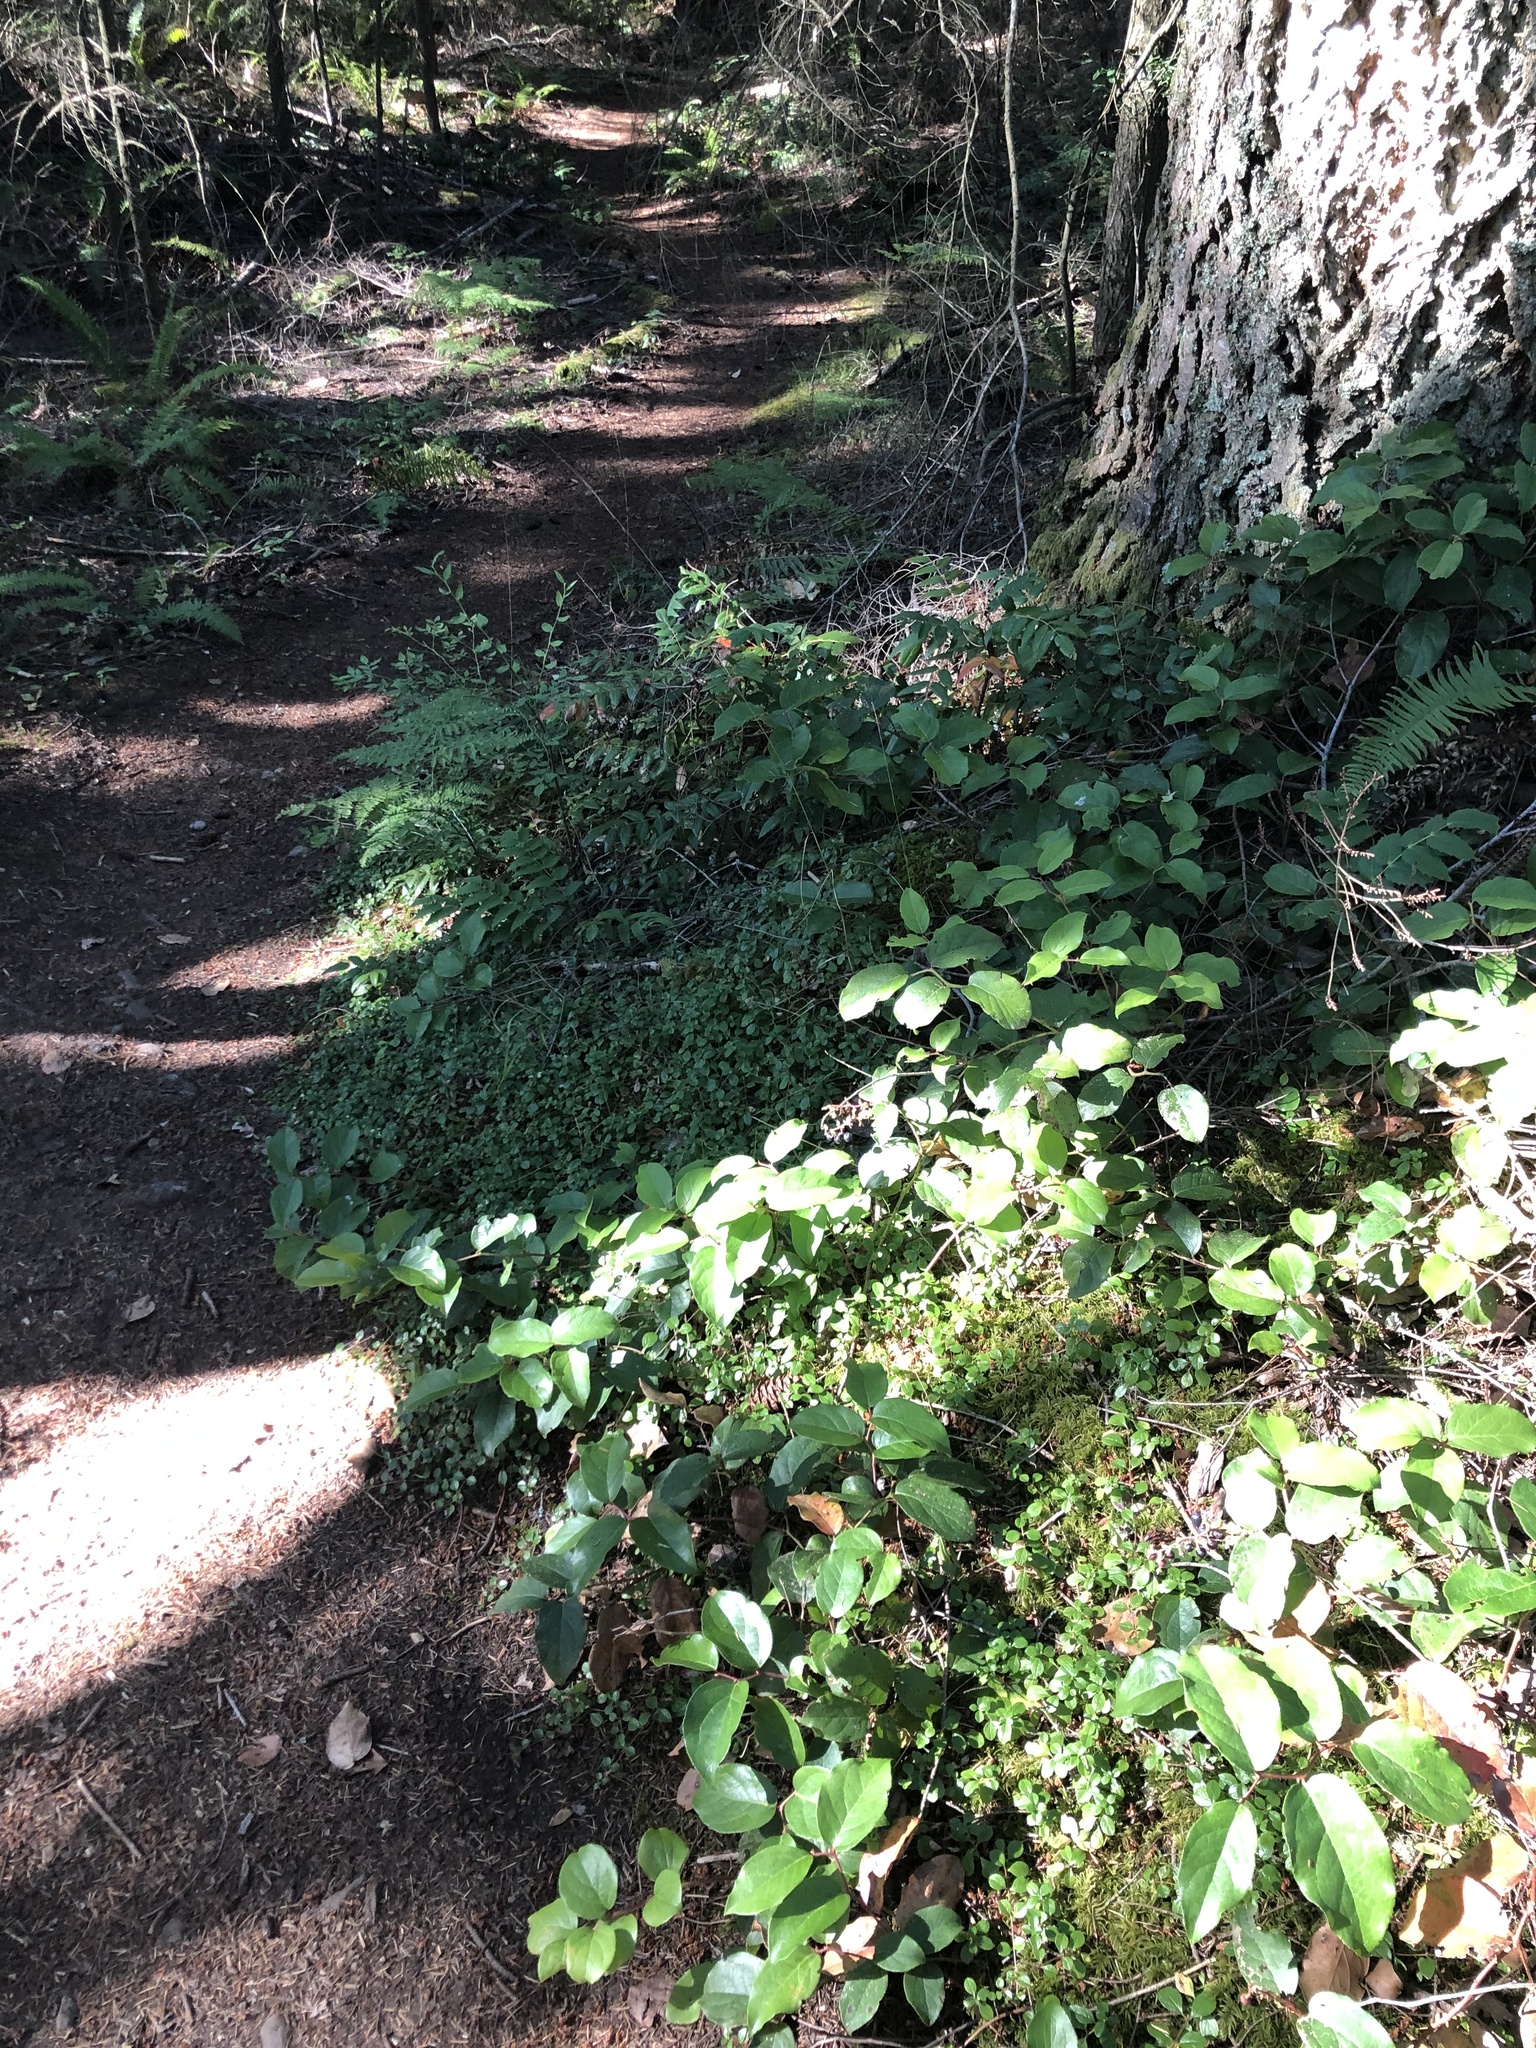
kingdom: Plantae
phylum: Tracheophyta
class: Magnoliopsida
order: Dipsacales
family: Caprifoliaceae
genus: Linnaea
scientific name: Linnaea borealis
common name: Twinflower
